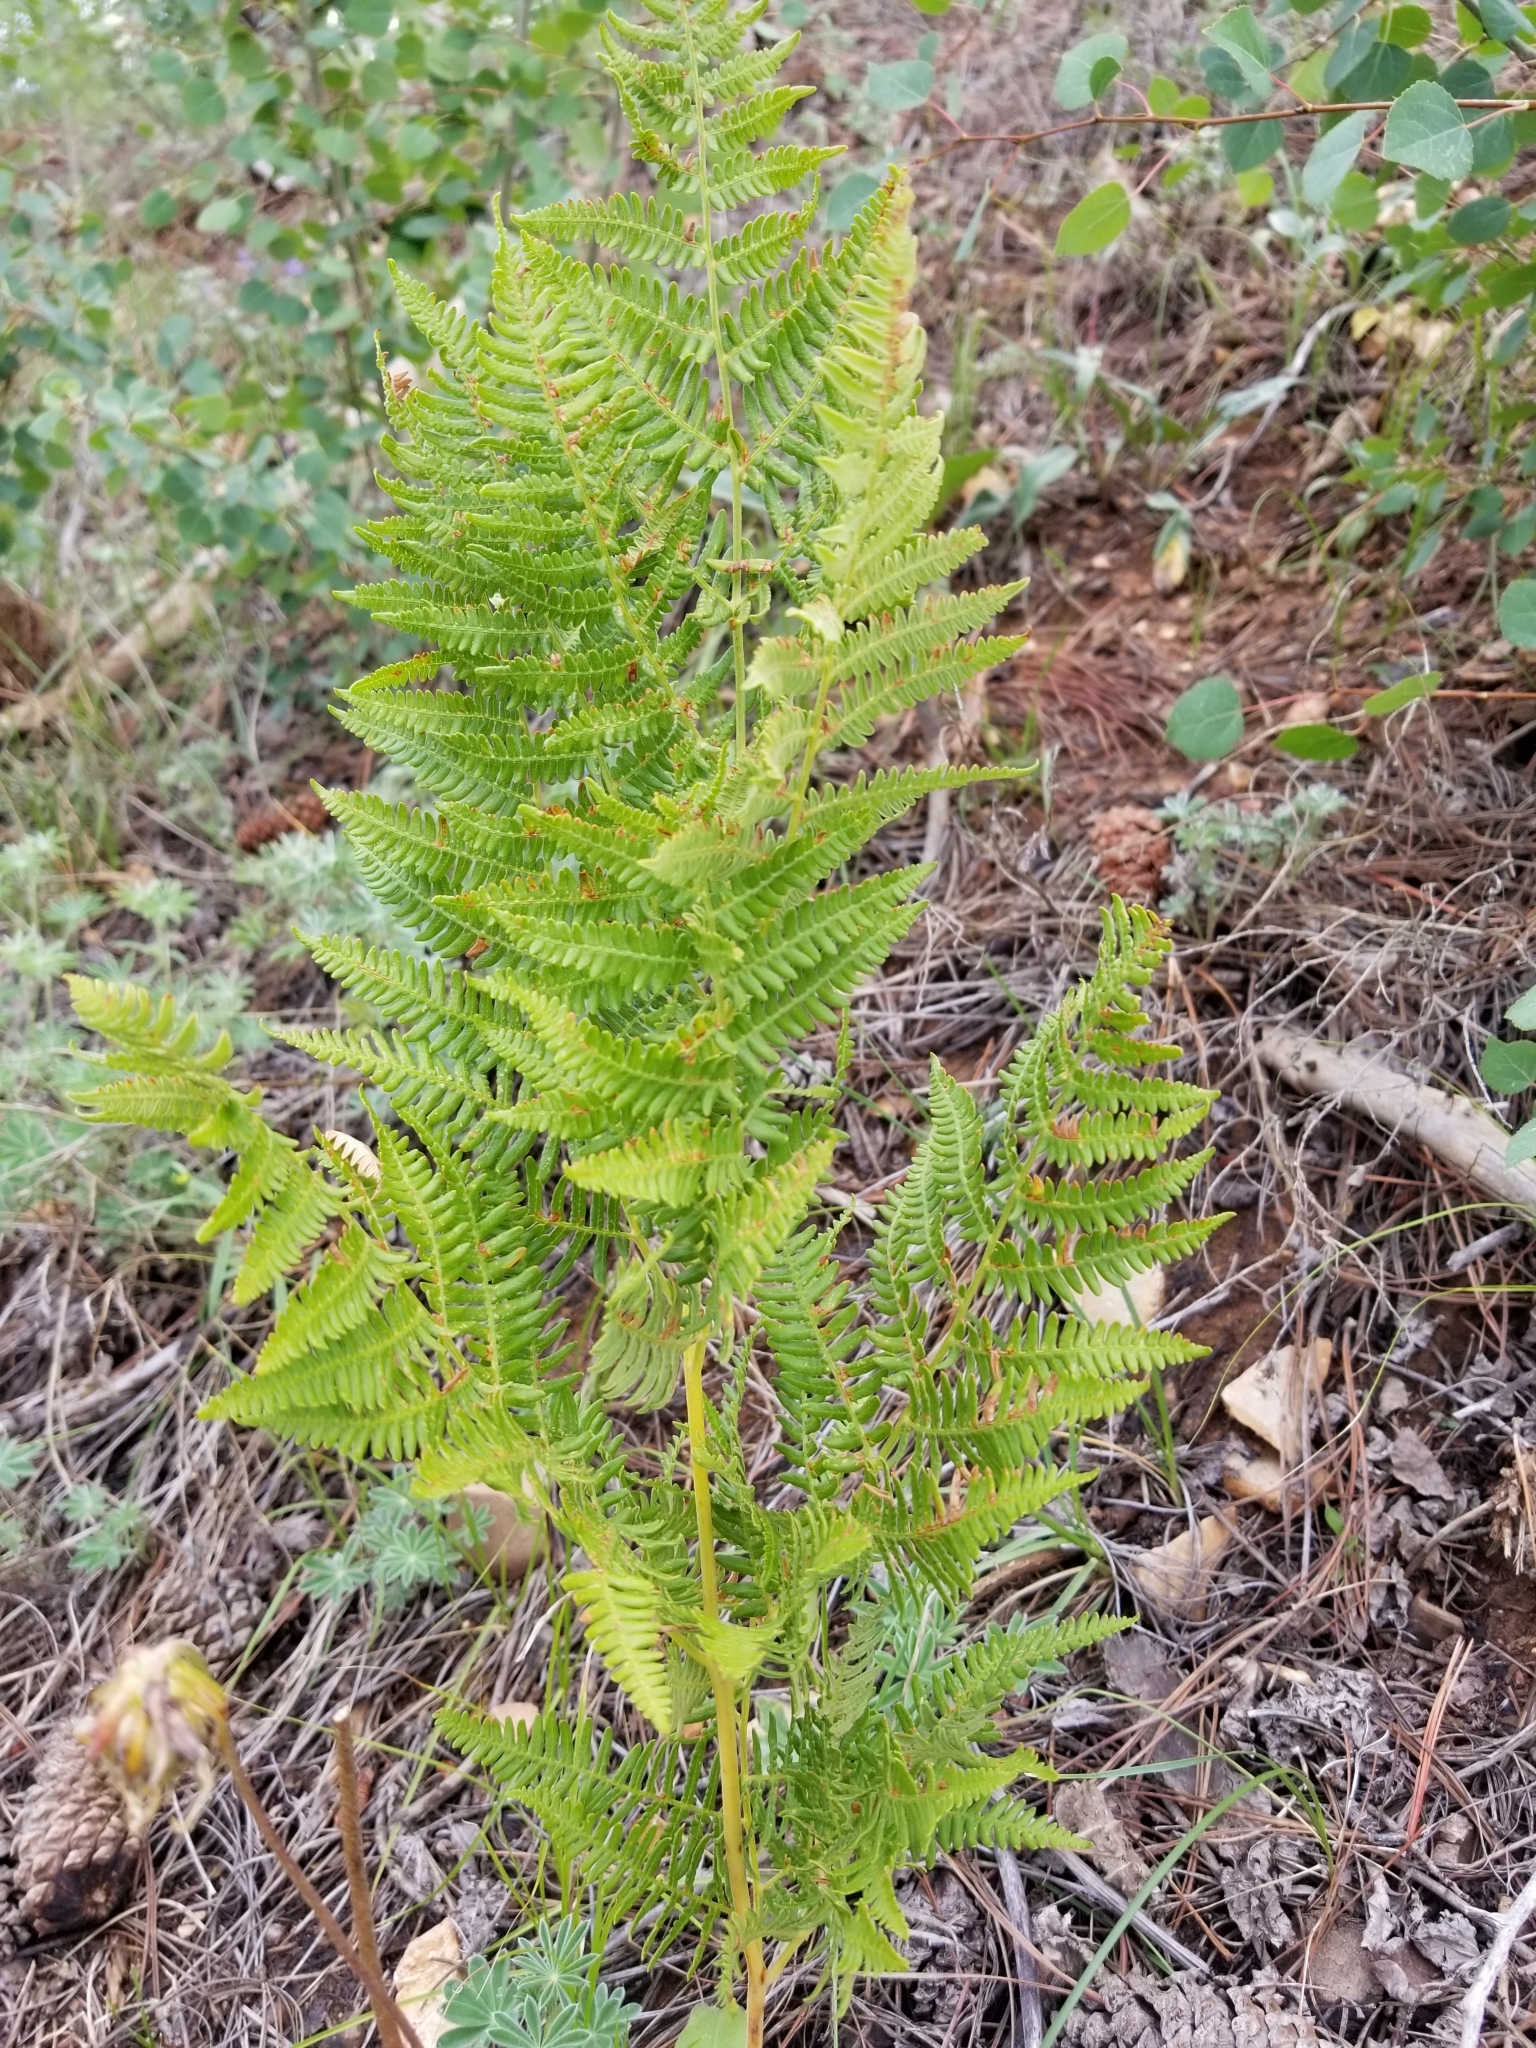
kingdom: Plantae
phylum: Tracheophyta
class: Polypodiopsida
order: Polypodiales
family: Dennstaedtiaceae
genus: Pteridium
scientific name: Pteridium aquilinum
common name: Bracken
